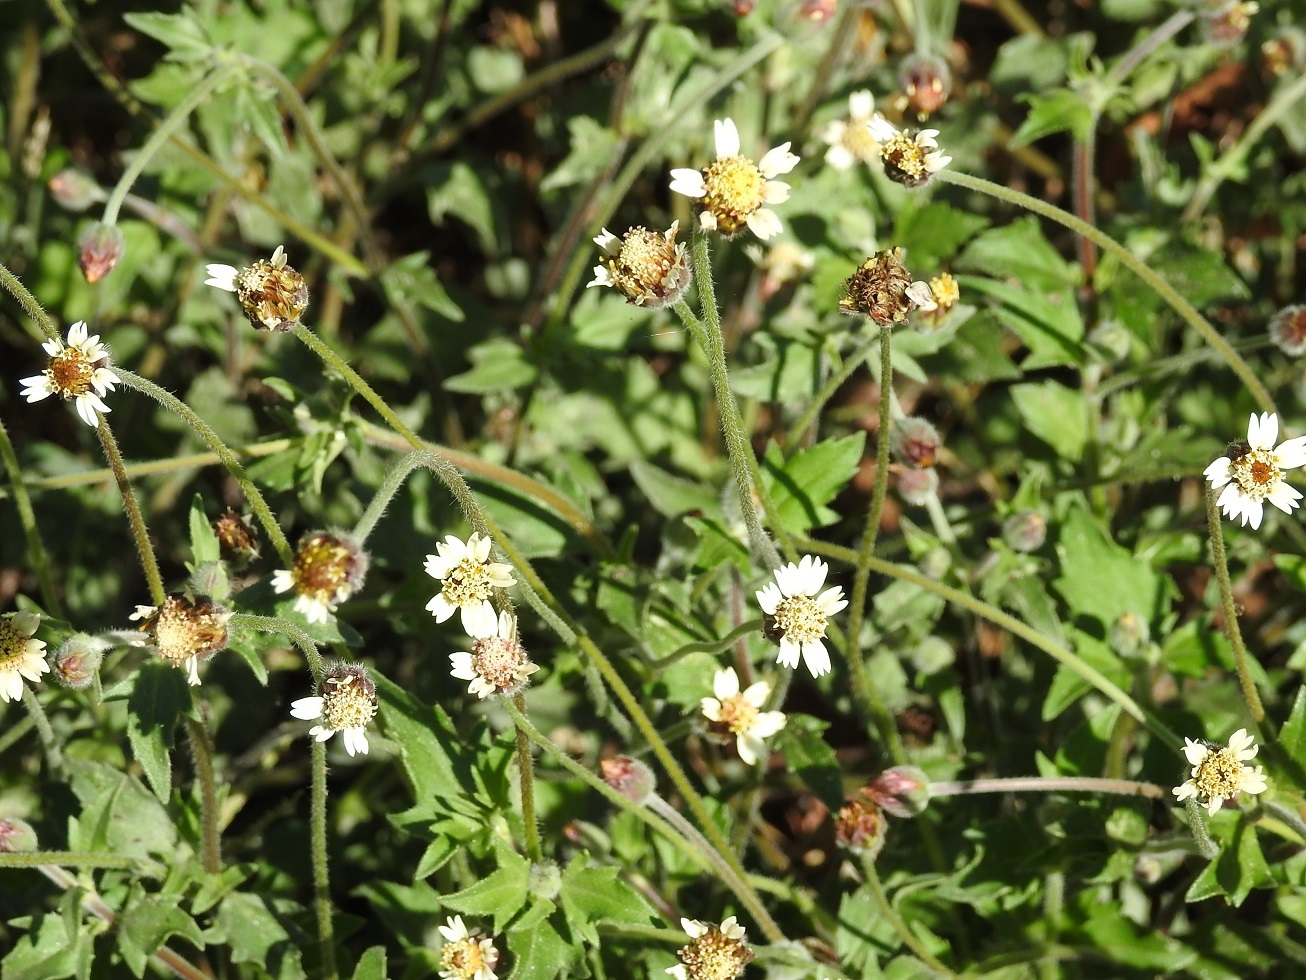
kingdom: Plantae
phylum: Tracheophyta
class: Magnoliopsida
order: Asterales
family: Asteraceae
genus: Tridax
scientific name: Tridax procumbens
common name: Coatbuttons
